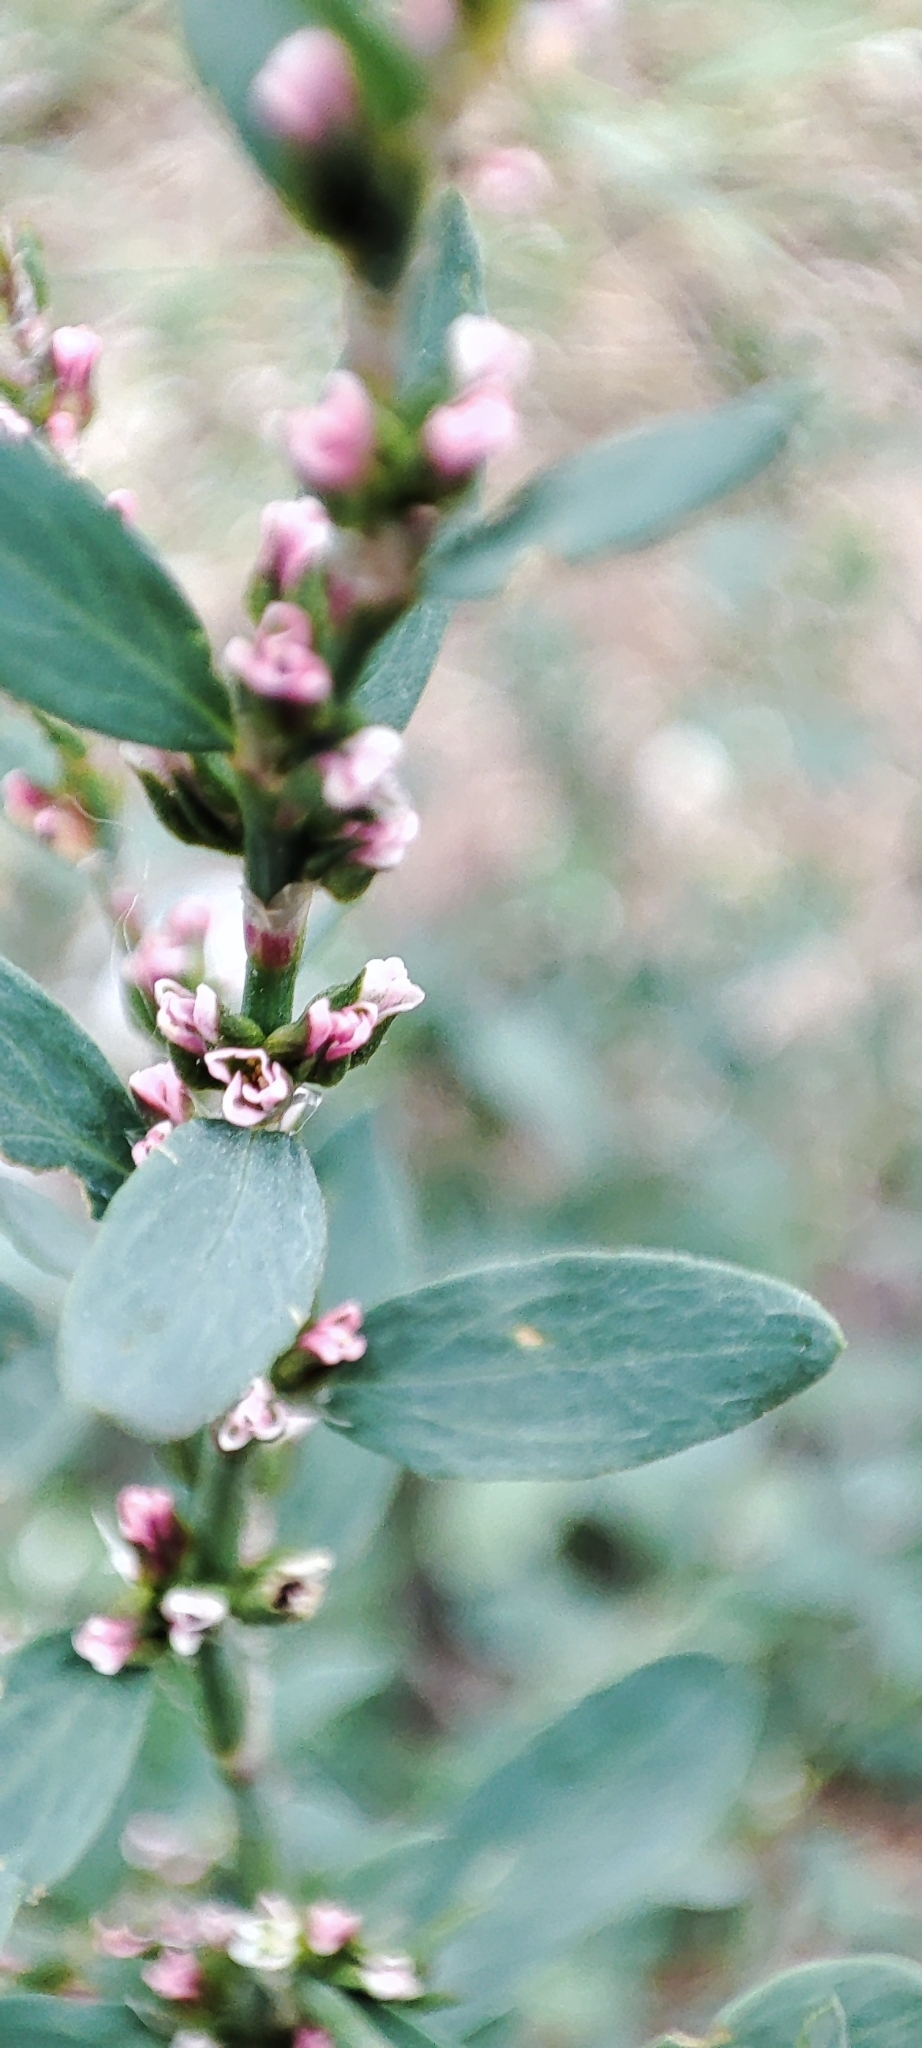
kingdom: Plantae
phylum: Tracheophyta
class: Magnoliopsida
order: Caryophyllales
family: Polygonaceae
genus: Polygonum
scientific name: Polygonum
